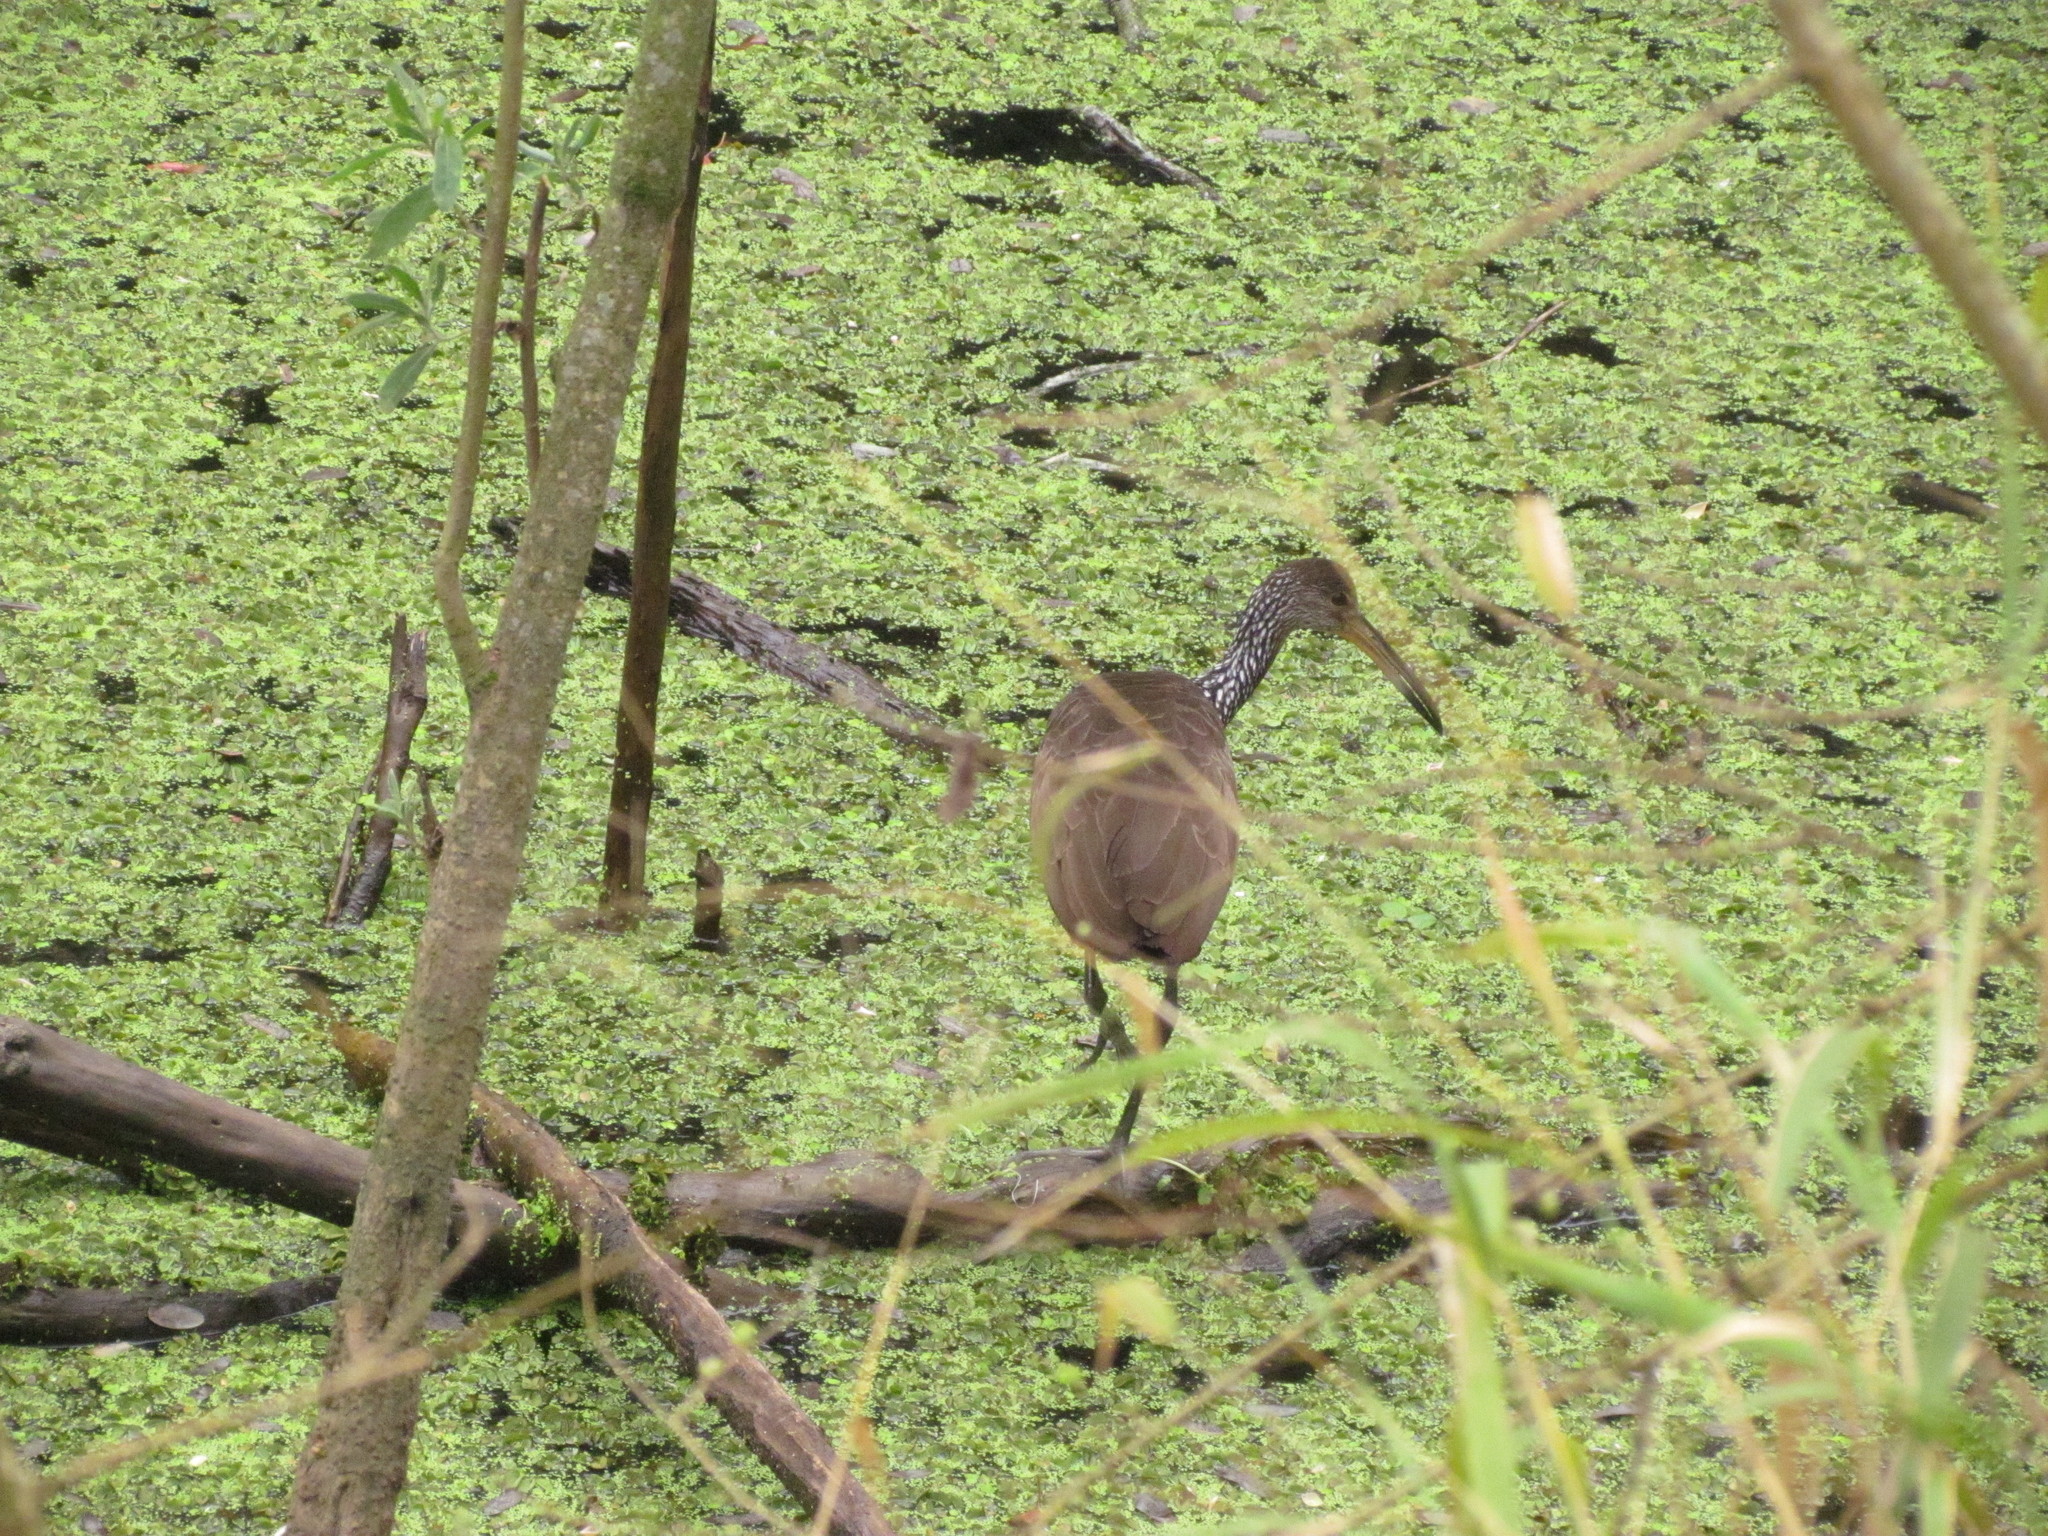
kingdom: Animalia
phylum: Chordata
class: Aves
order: Gruiformes
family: Aramidae
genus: Aramus
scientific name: Aramus guarauna
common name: Limpkin
